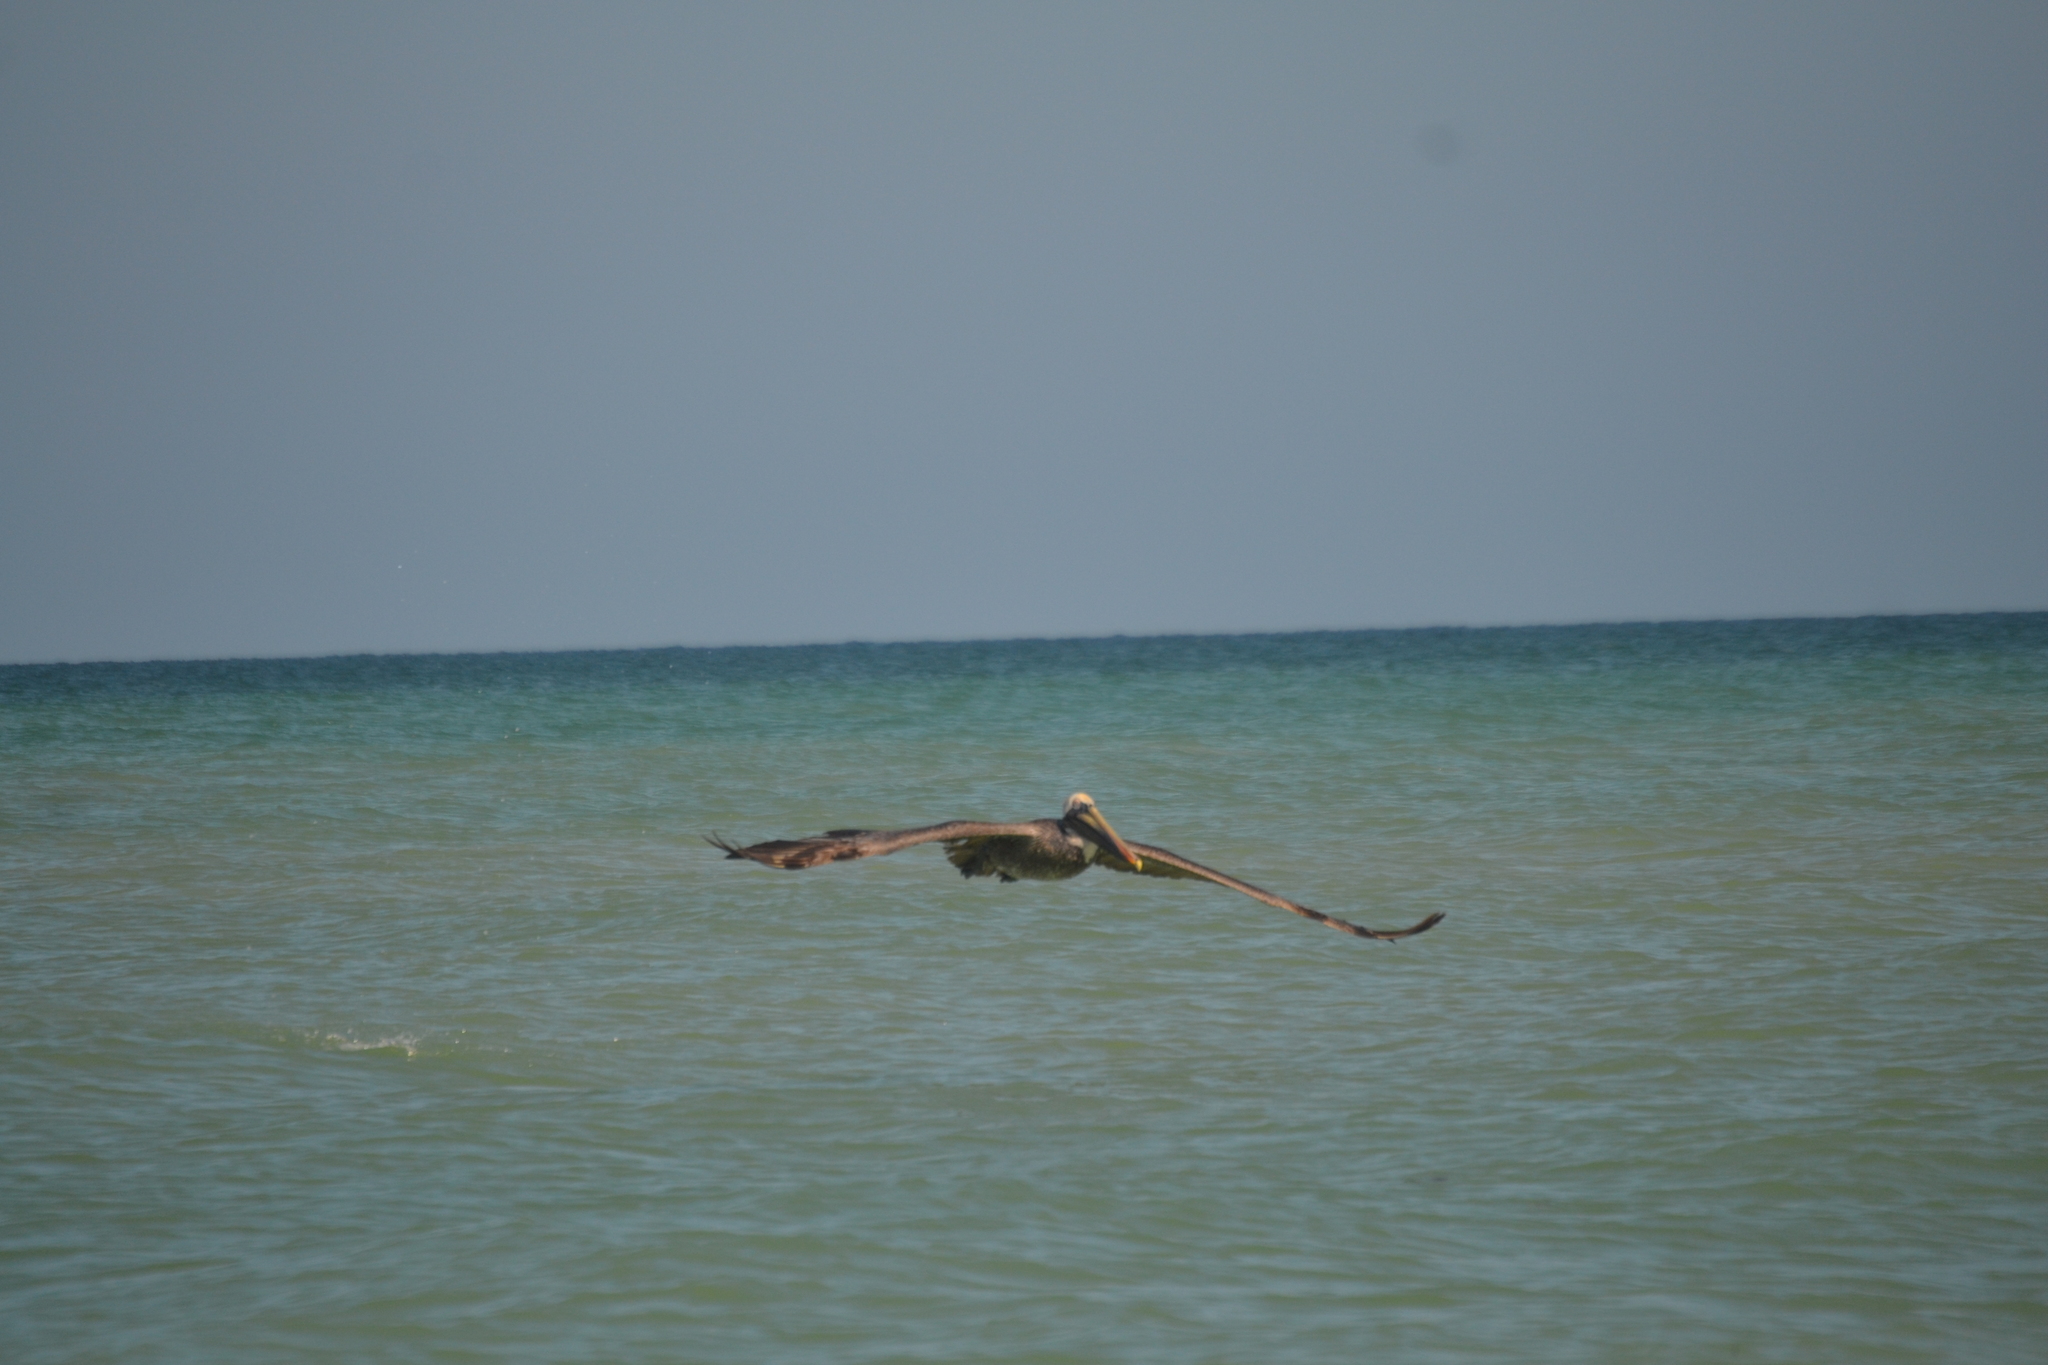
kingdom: Animalia
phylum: Chordata
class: Aves
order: Pelecaniformes
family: Pelecanidae
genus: Pelecanus
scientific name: Pelecanus occidentalis
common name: Brown pelican
